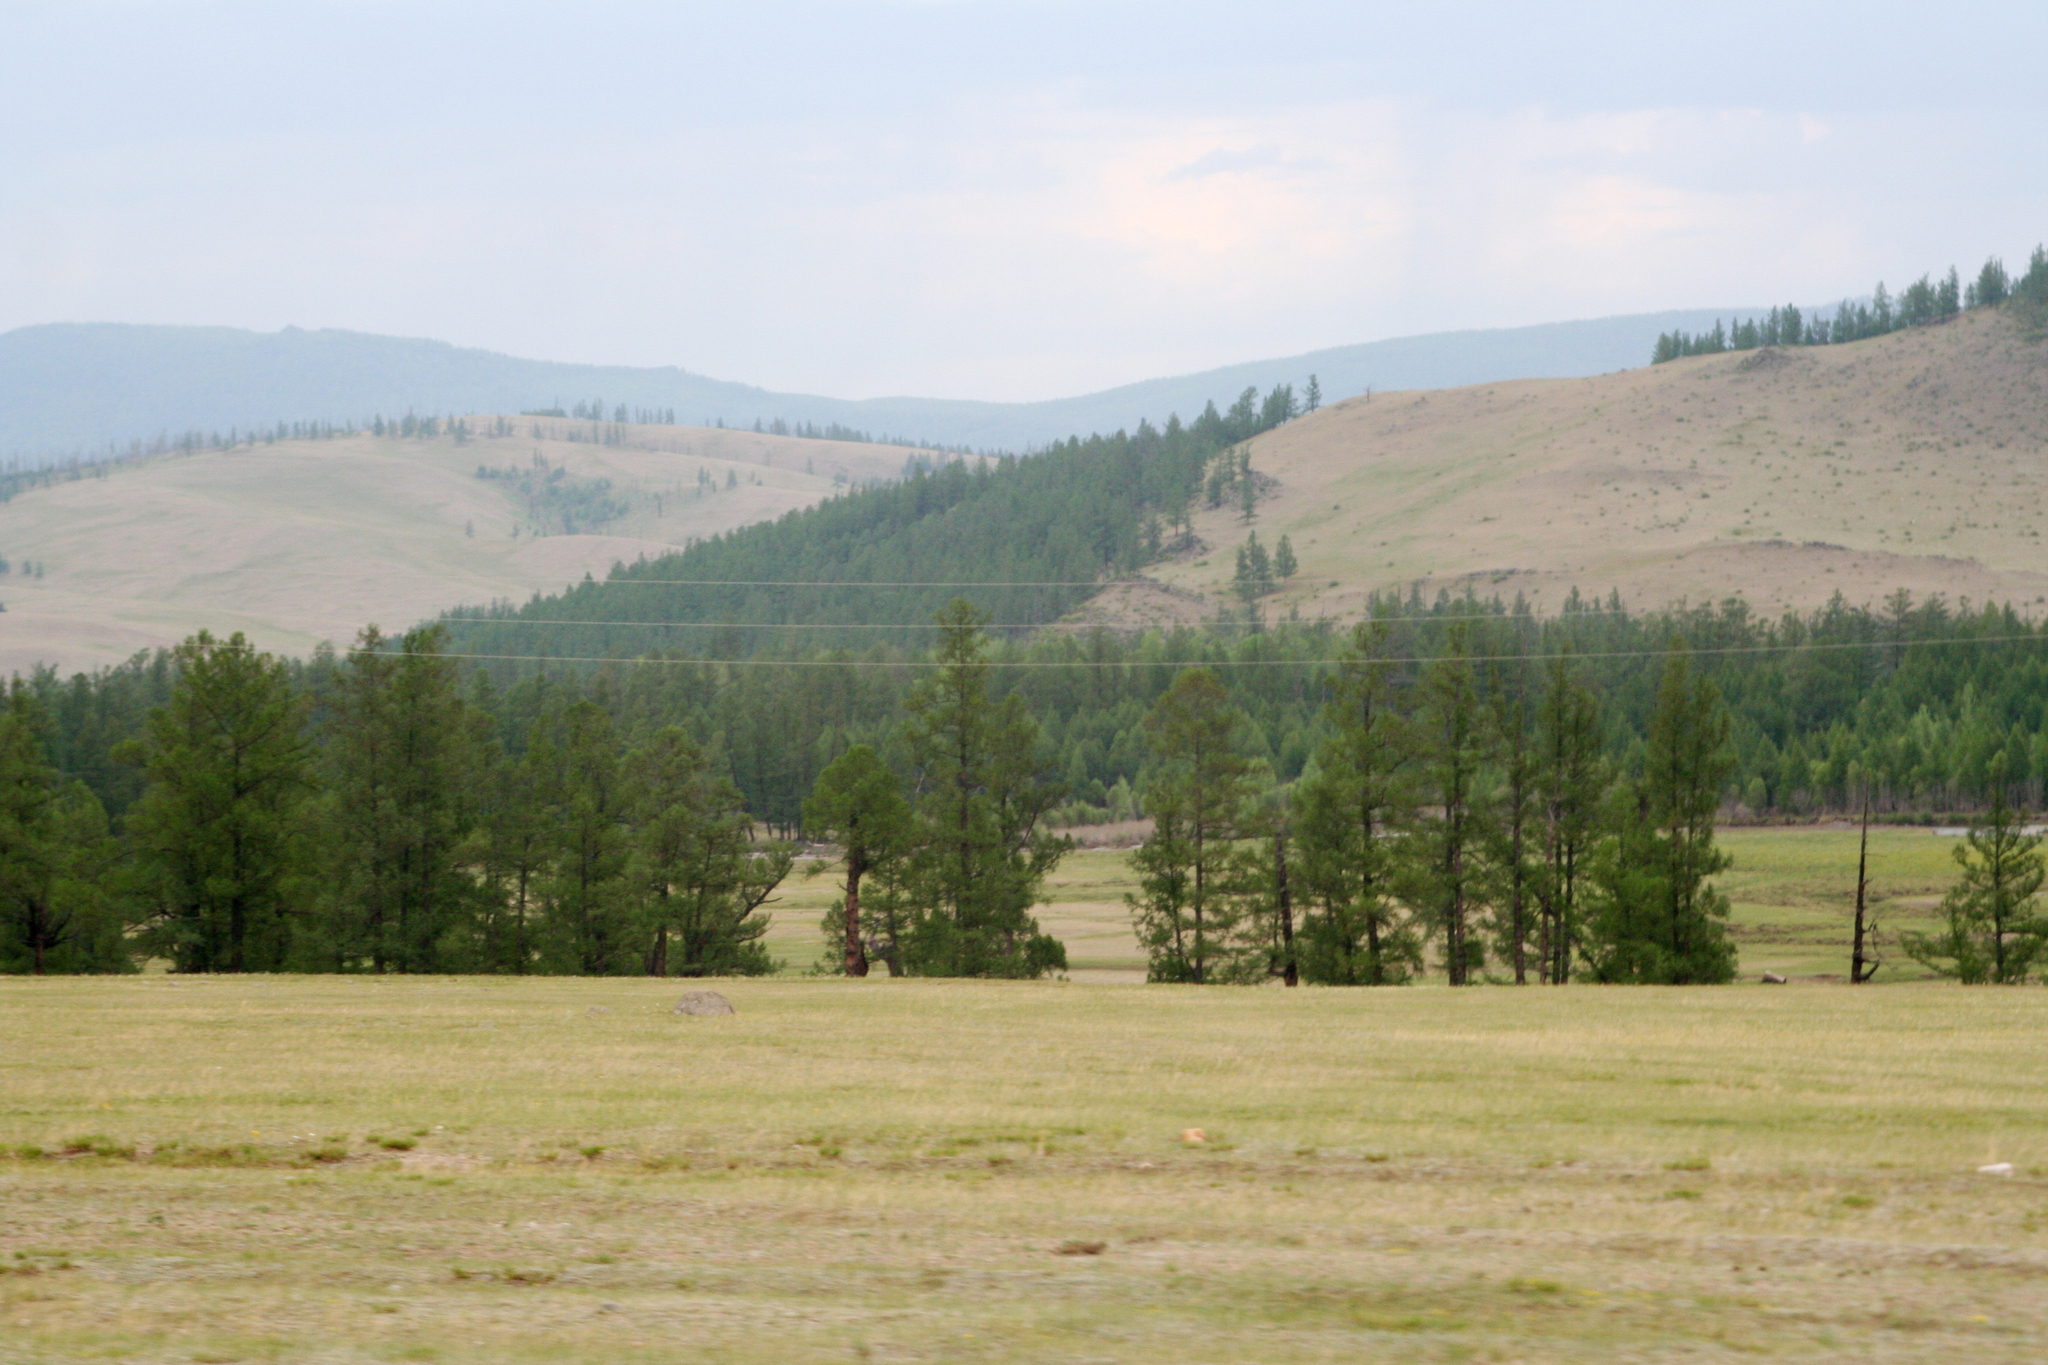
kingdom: Plantae
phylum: Tracheophyta
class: Pinopsida
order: Pinales
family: Pinaceae
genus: Larix
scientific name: Larix sibirica
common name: Siberian larch
